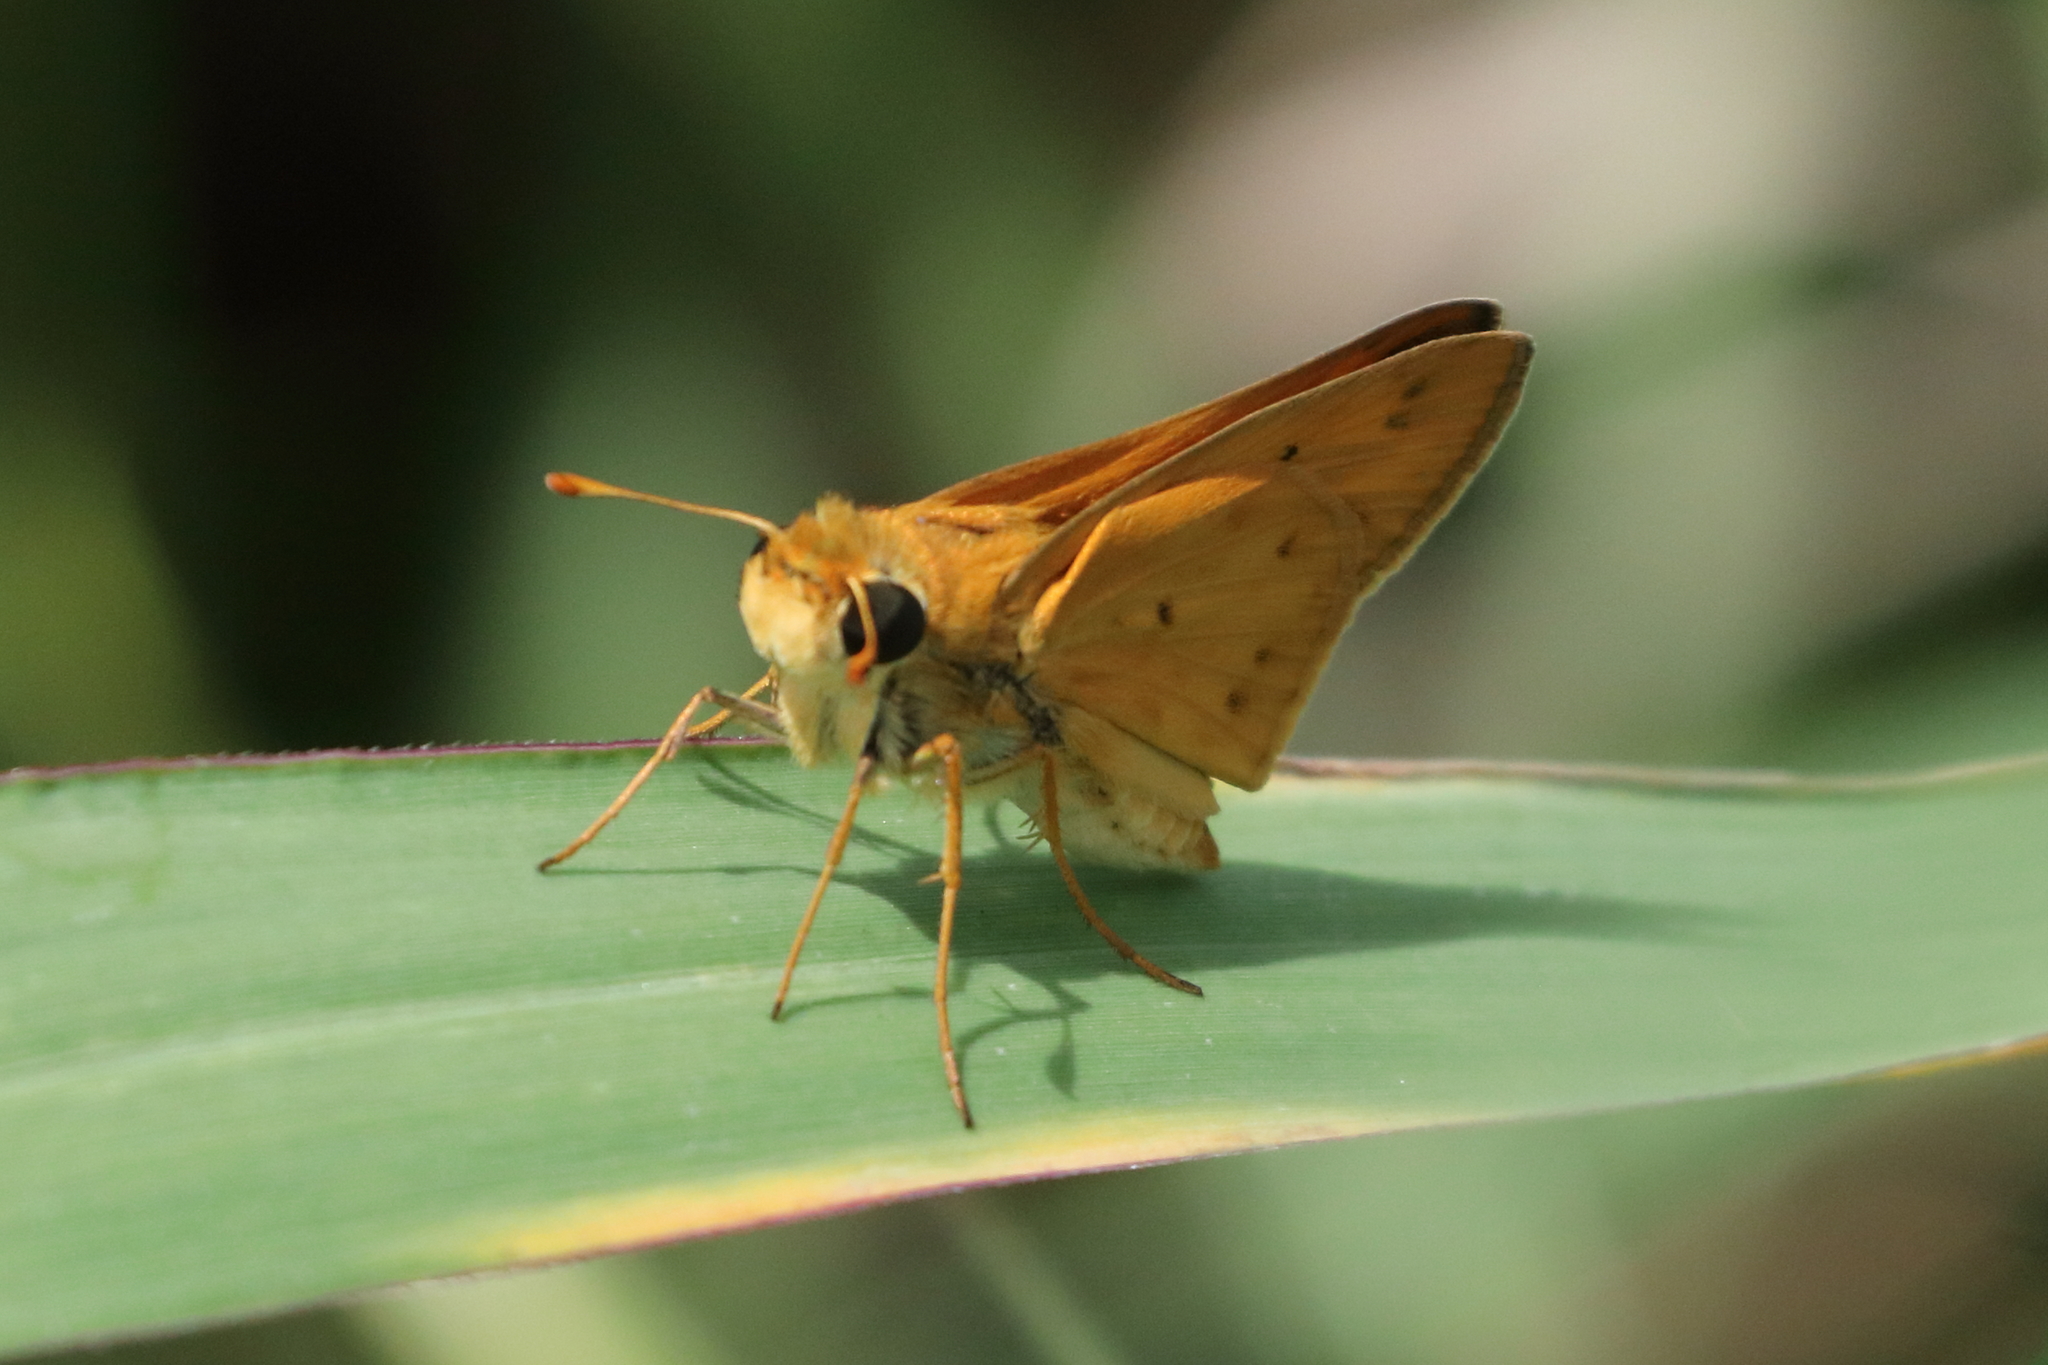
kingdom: Animalia
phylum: Arthropoda
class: Insecta
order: Lepidoptera
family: Hesperiidae
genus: Hylephila
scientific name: Hylephila phyleus
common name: Fiery skipper
